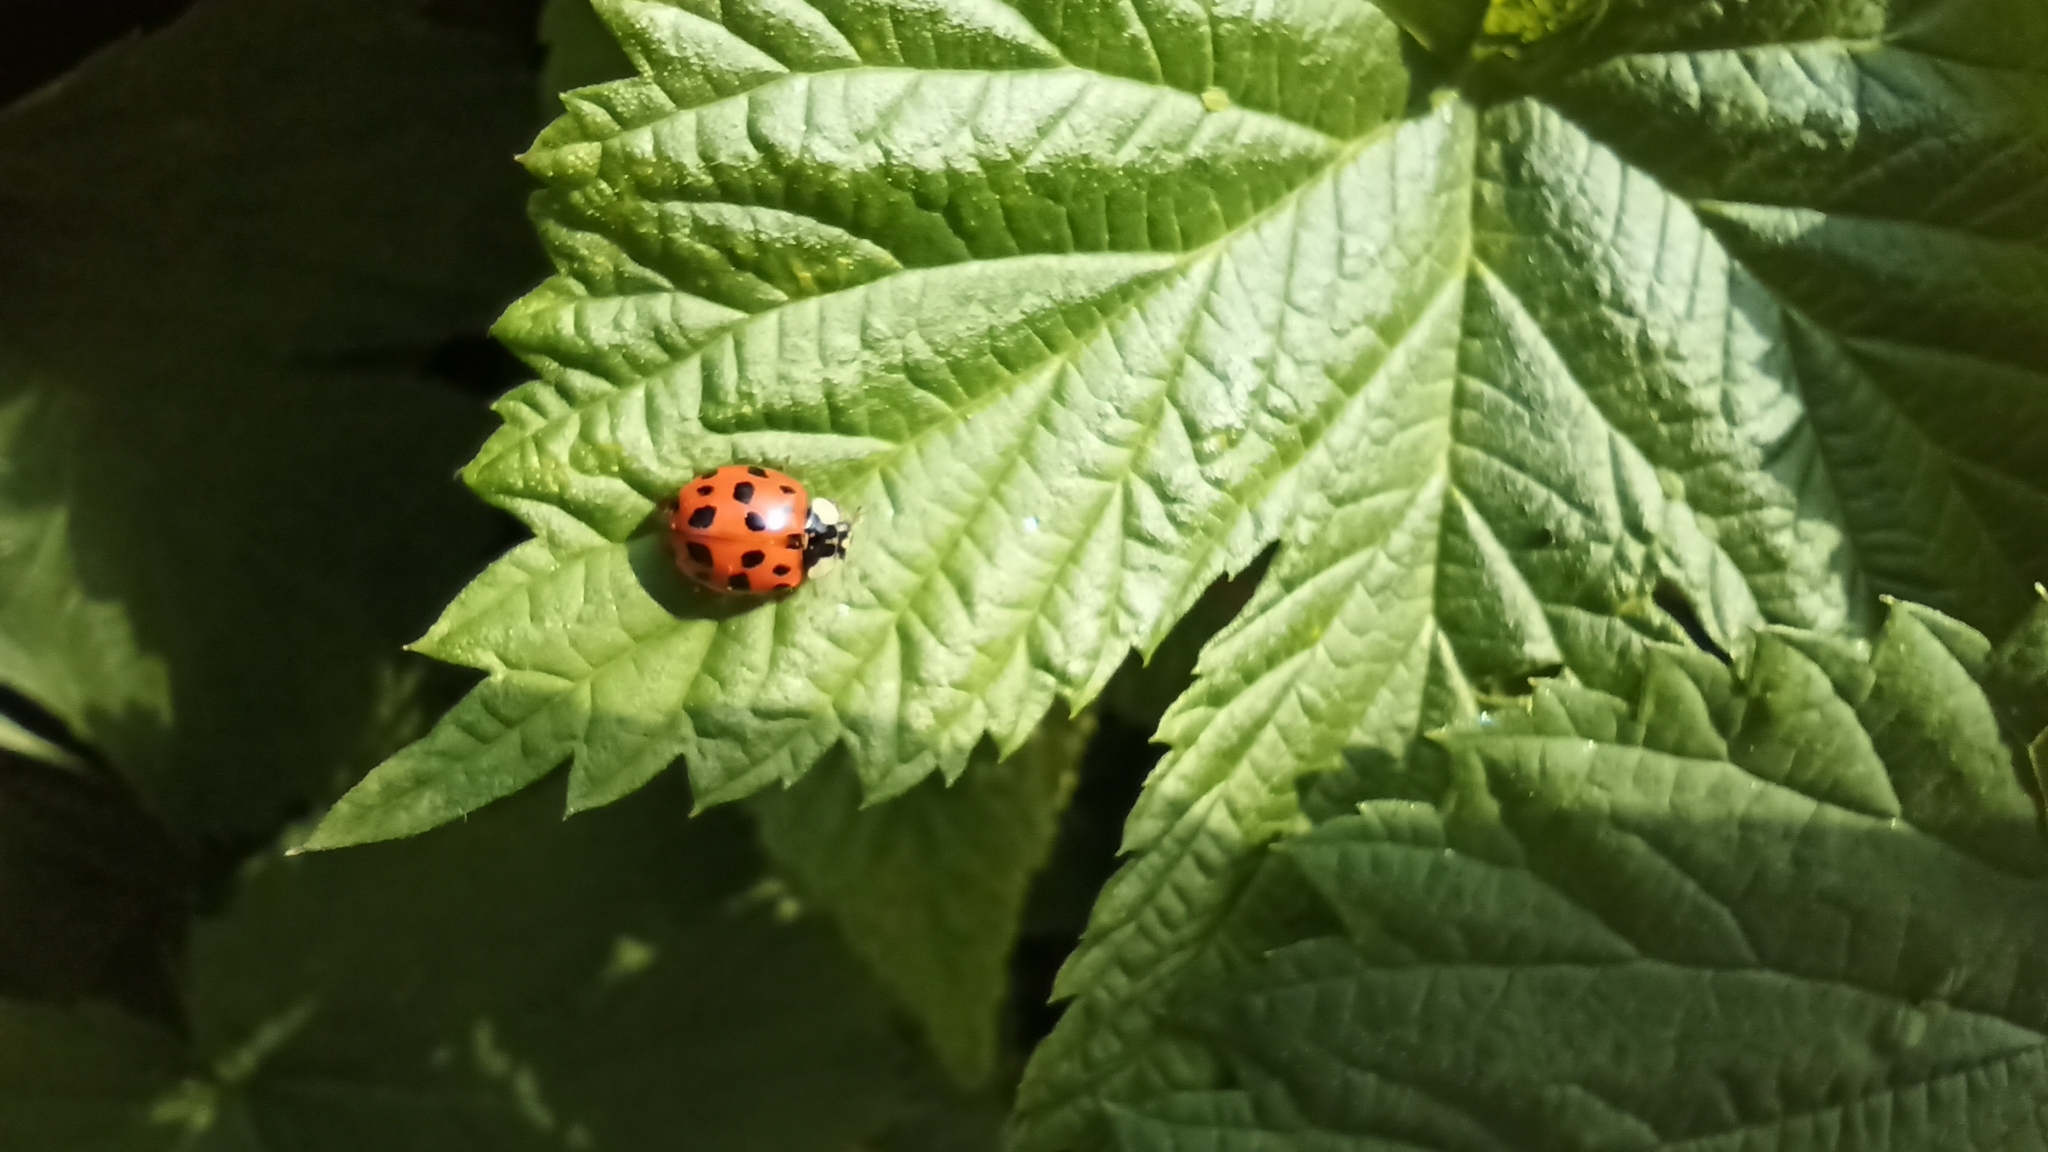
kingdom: Animalia
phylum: Arthropoda
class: Insecta
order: Coleoptera
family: Coccinellidae
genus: Harmonia
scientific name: Harmonia axyridis
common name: Harlequin ladybird
